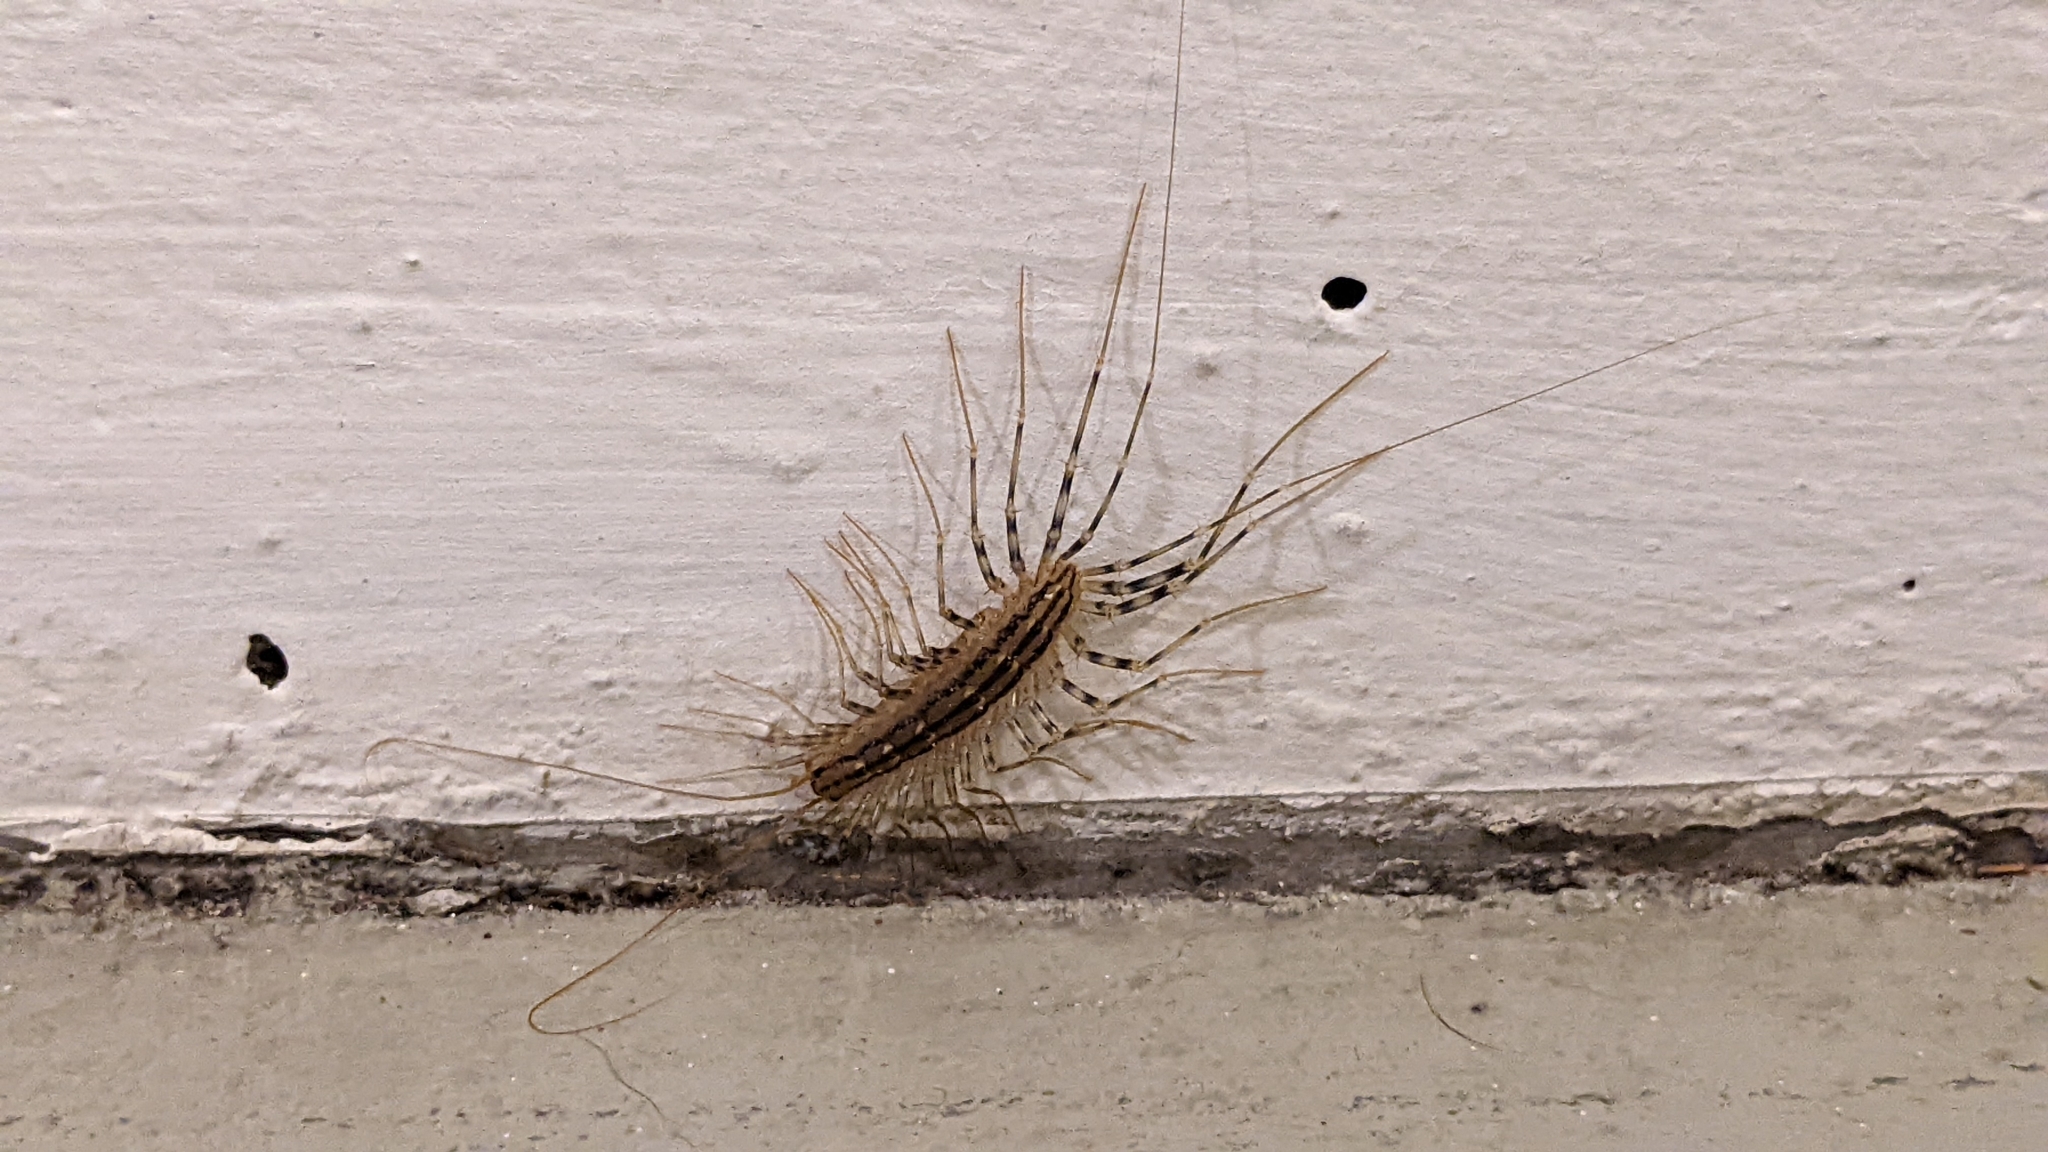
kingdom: Animalia
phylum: Arthropoda
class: Chilopoda
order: Scutigeromorpha
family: Scutigeridae
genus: Scutigera
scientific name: Scutigera coleoptrata
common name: House centipede
